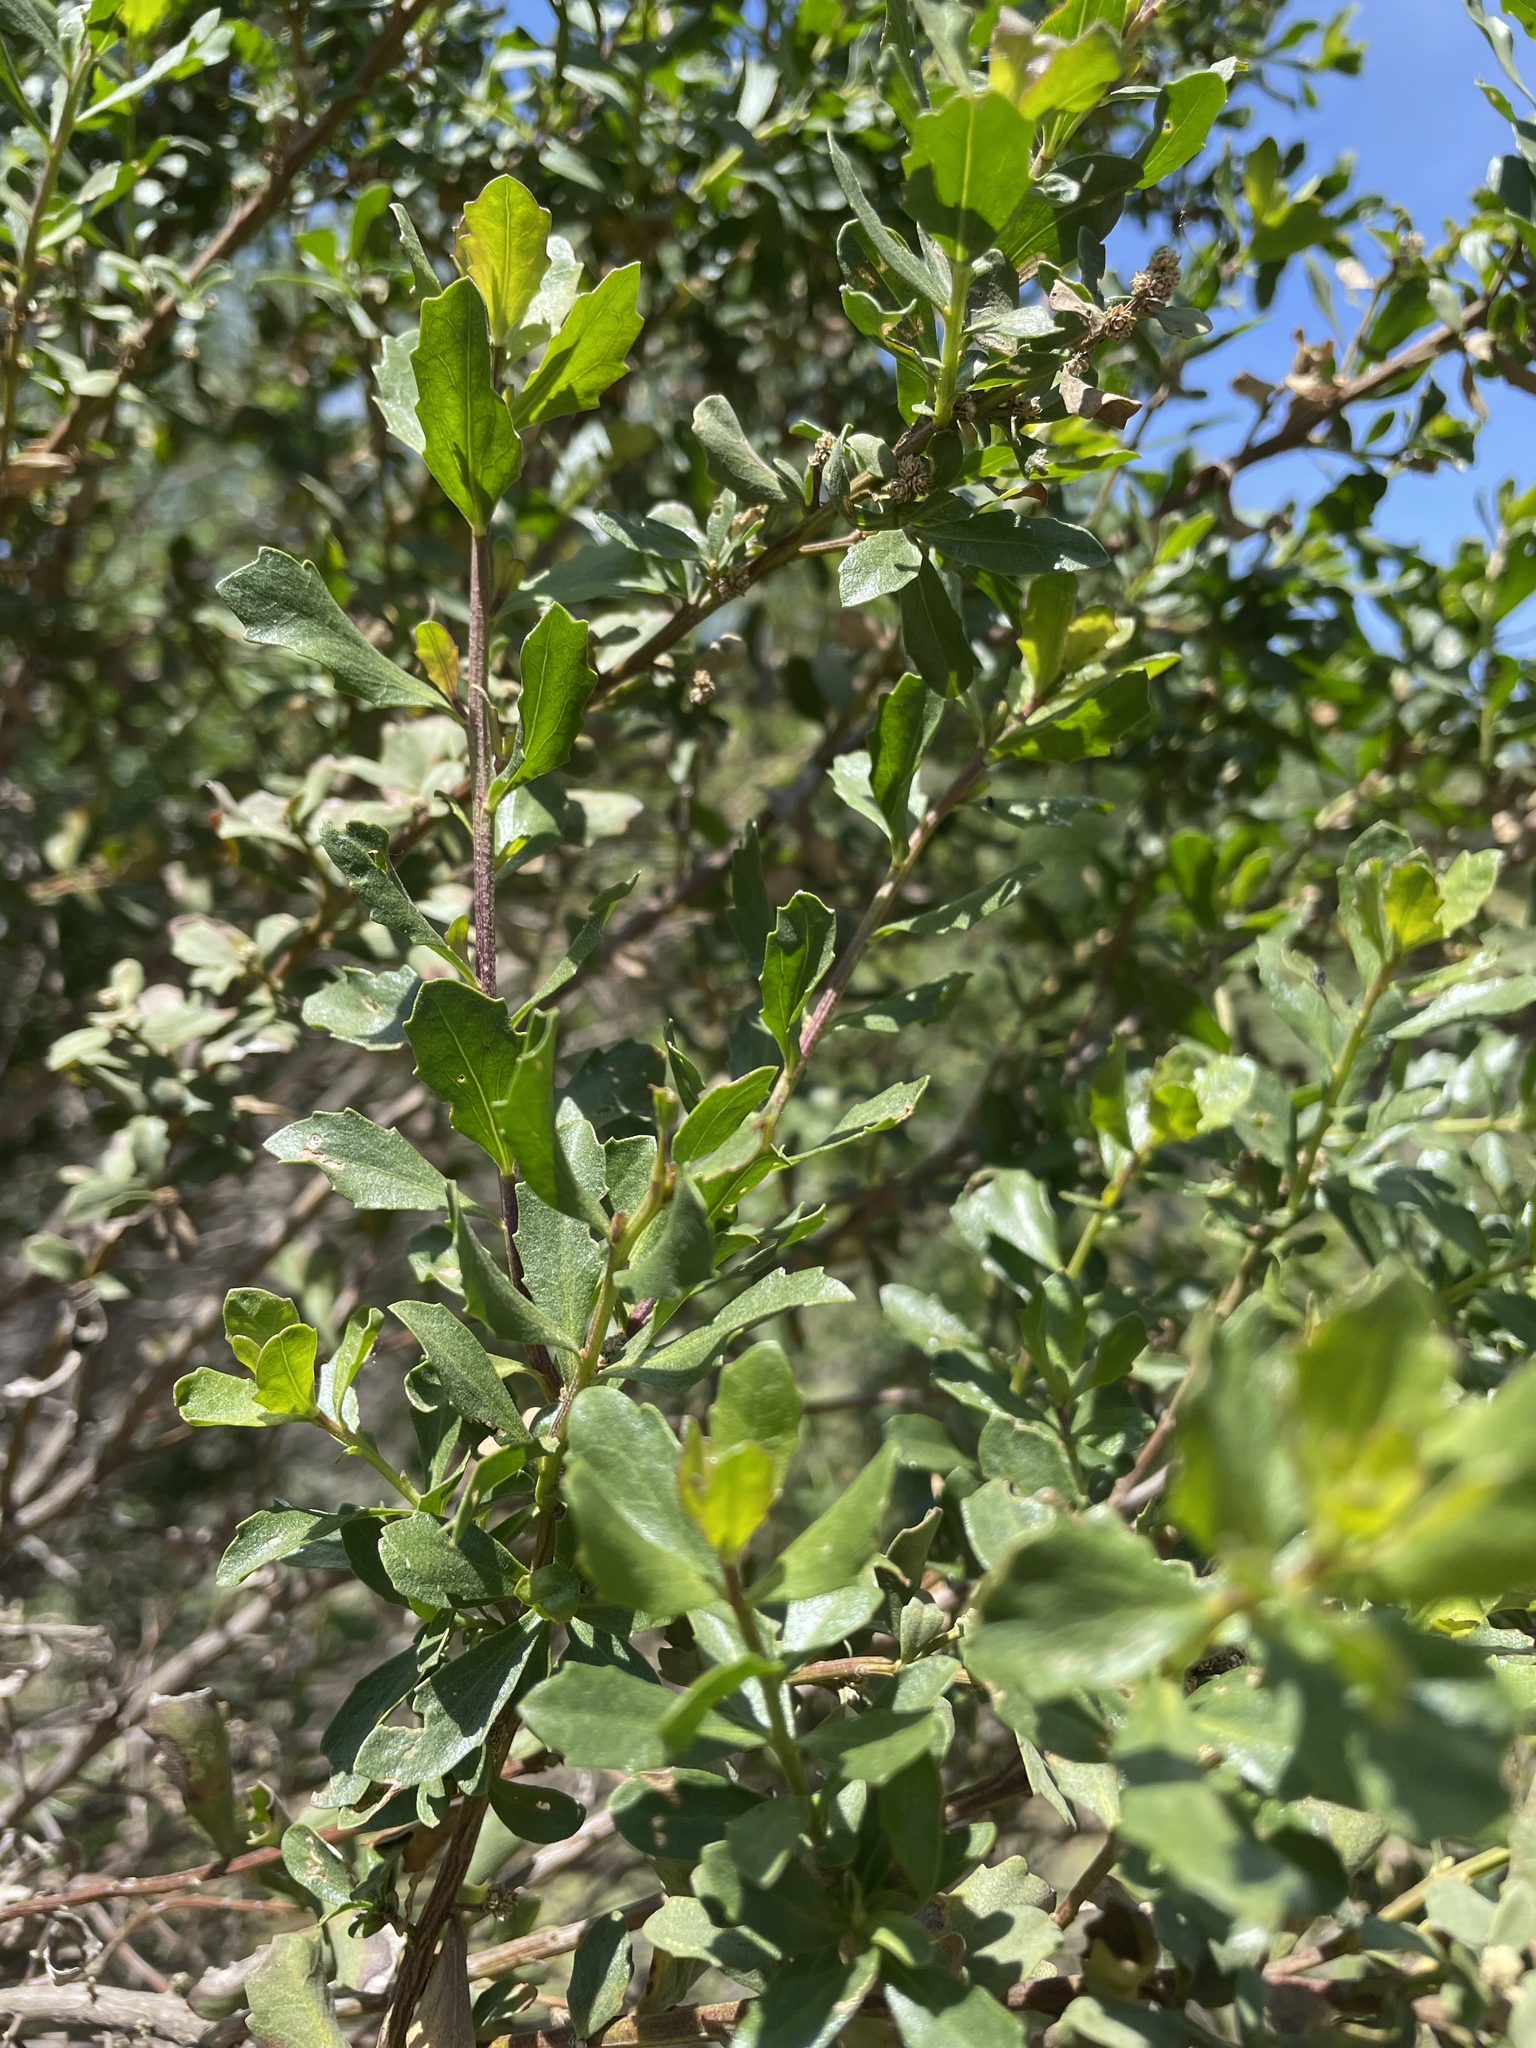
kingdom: Plantae
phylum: Tracheophyta
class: Magnoliopsida
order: Asterales
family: Asteraceae
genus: Baccharis
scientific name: Baccharis pilularis
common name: Coyotebrush
